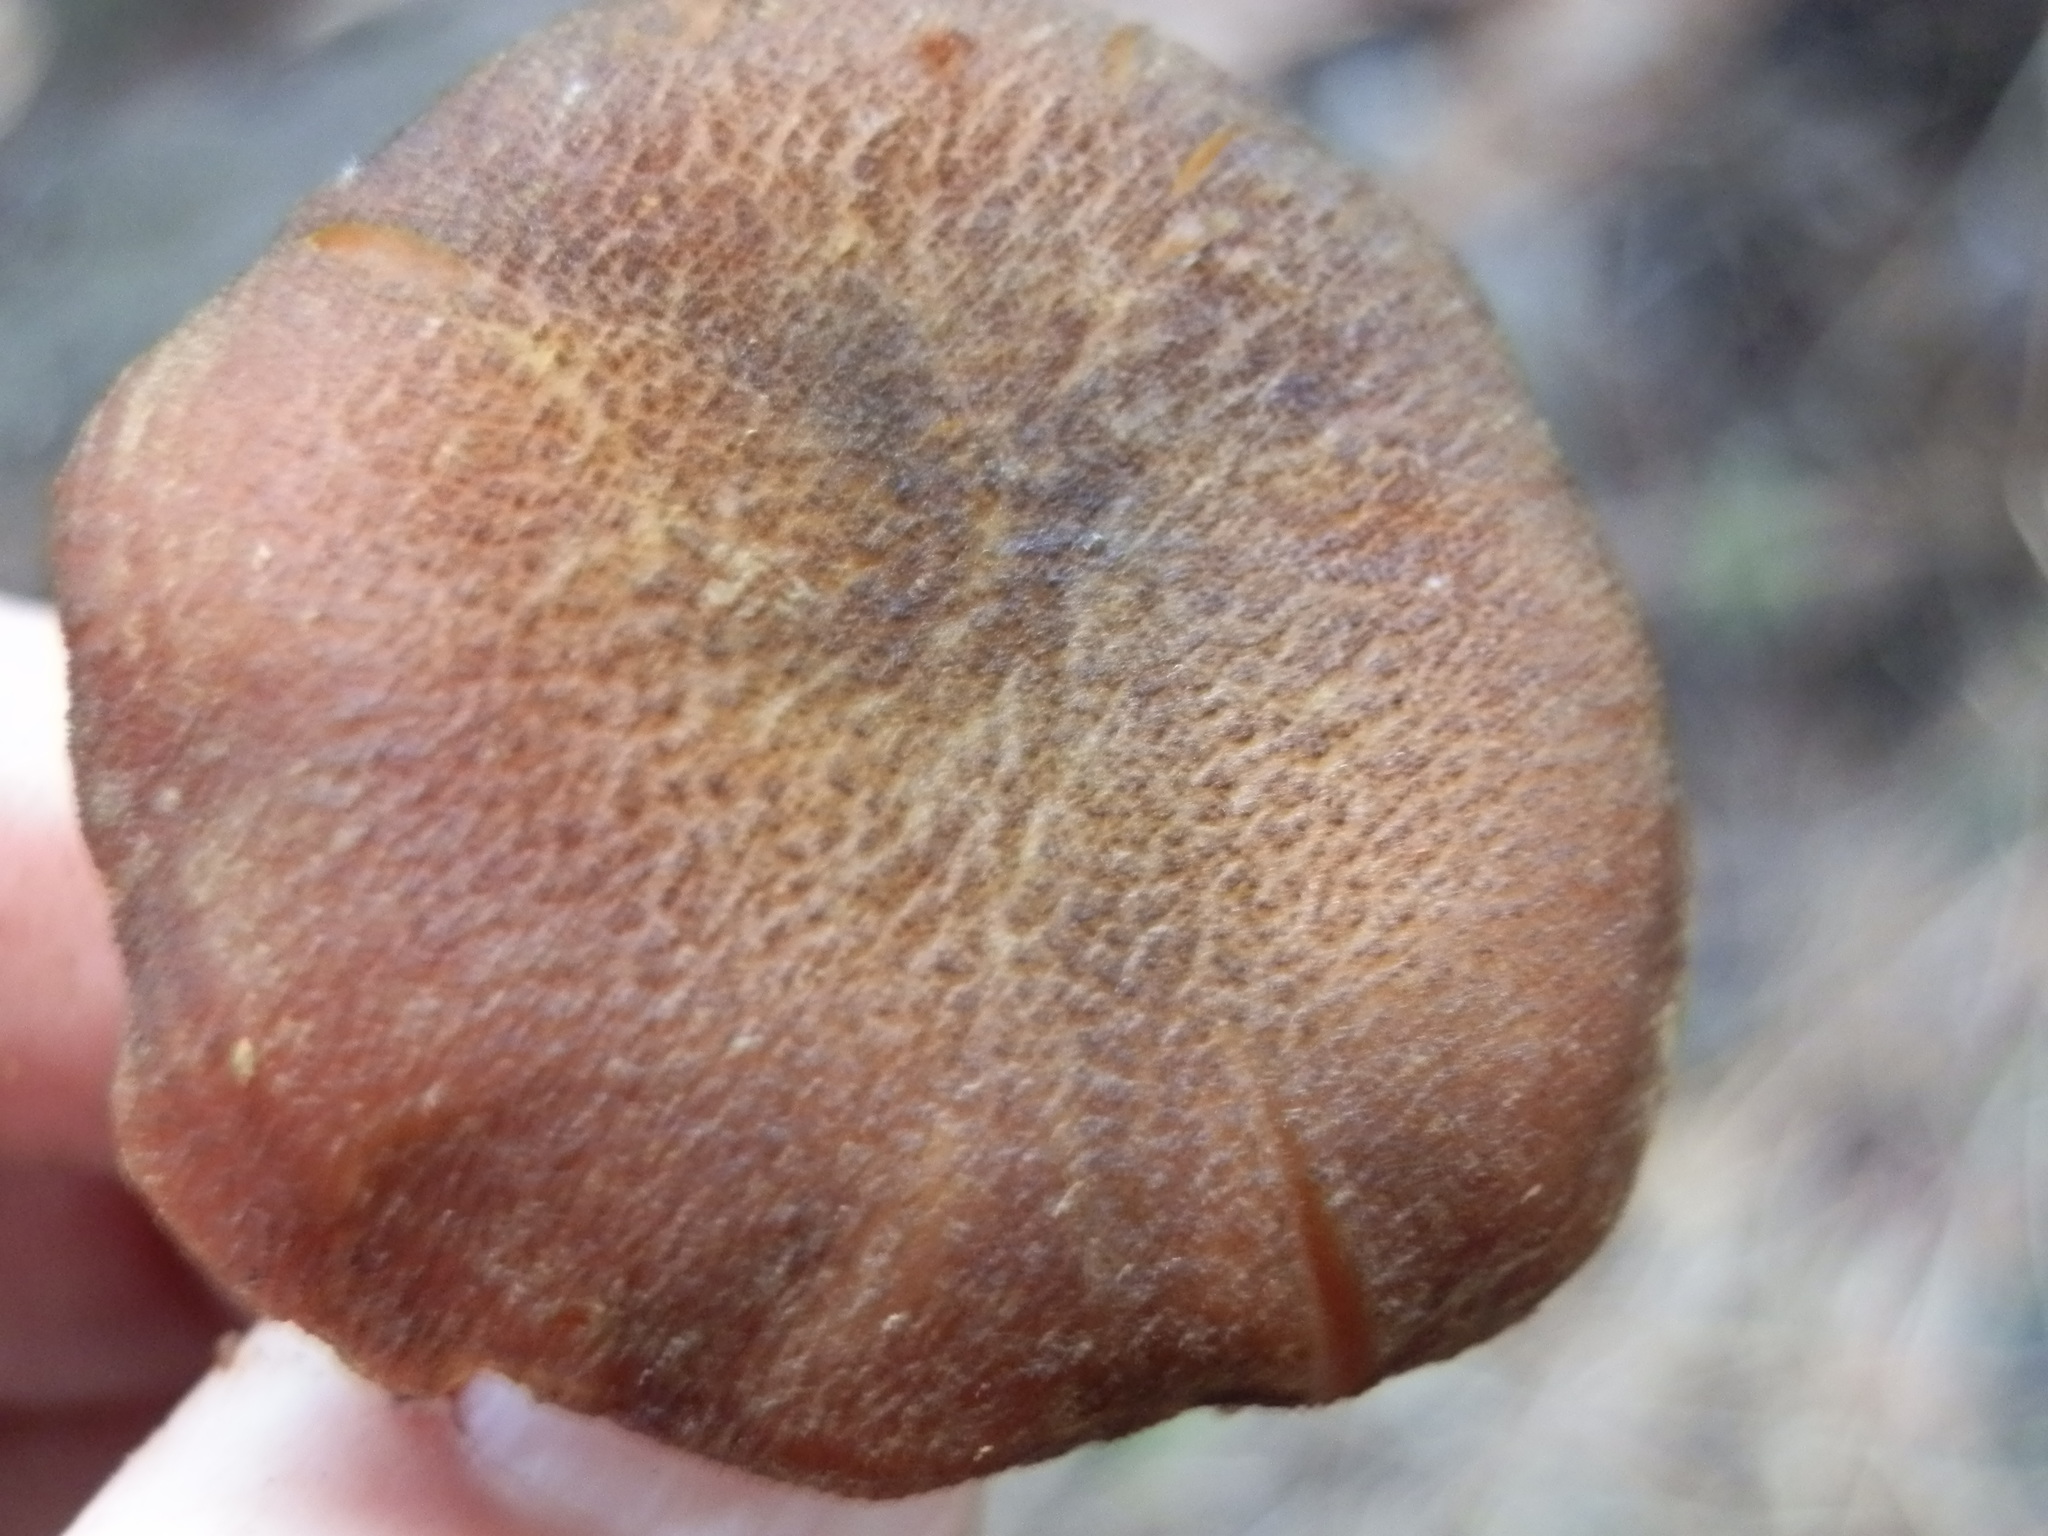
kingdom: Fungi
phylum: Basidiomycota
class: Agaricomycetes
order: Agaricales
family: Tricholomataceae
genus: Tricholomopsis
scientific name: Tricholomopsis rutilans
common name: Plums and custard
